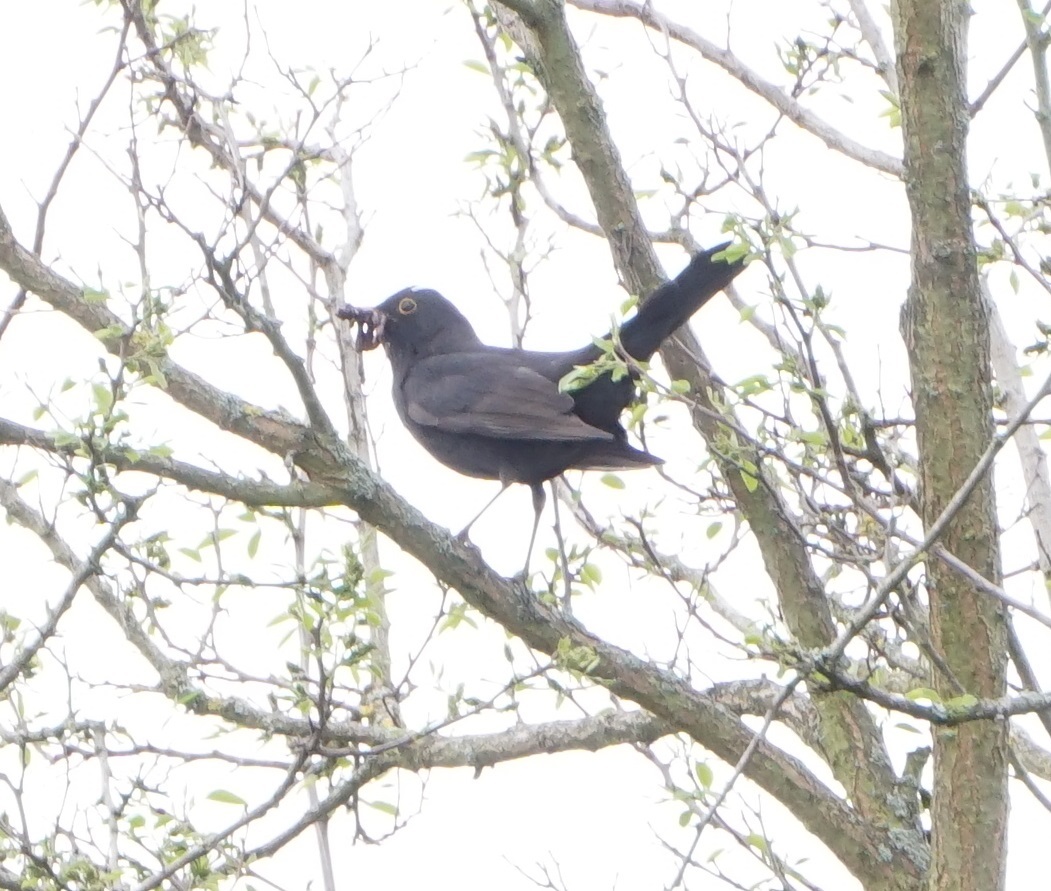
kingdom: Animalia
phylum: Chordata
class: Aves
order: Passeriformes
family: Turdidae
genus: Turdus
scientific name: Turdus merula
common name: Common blackbird
